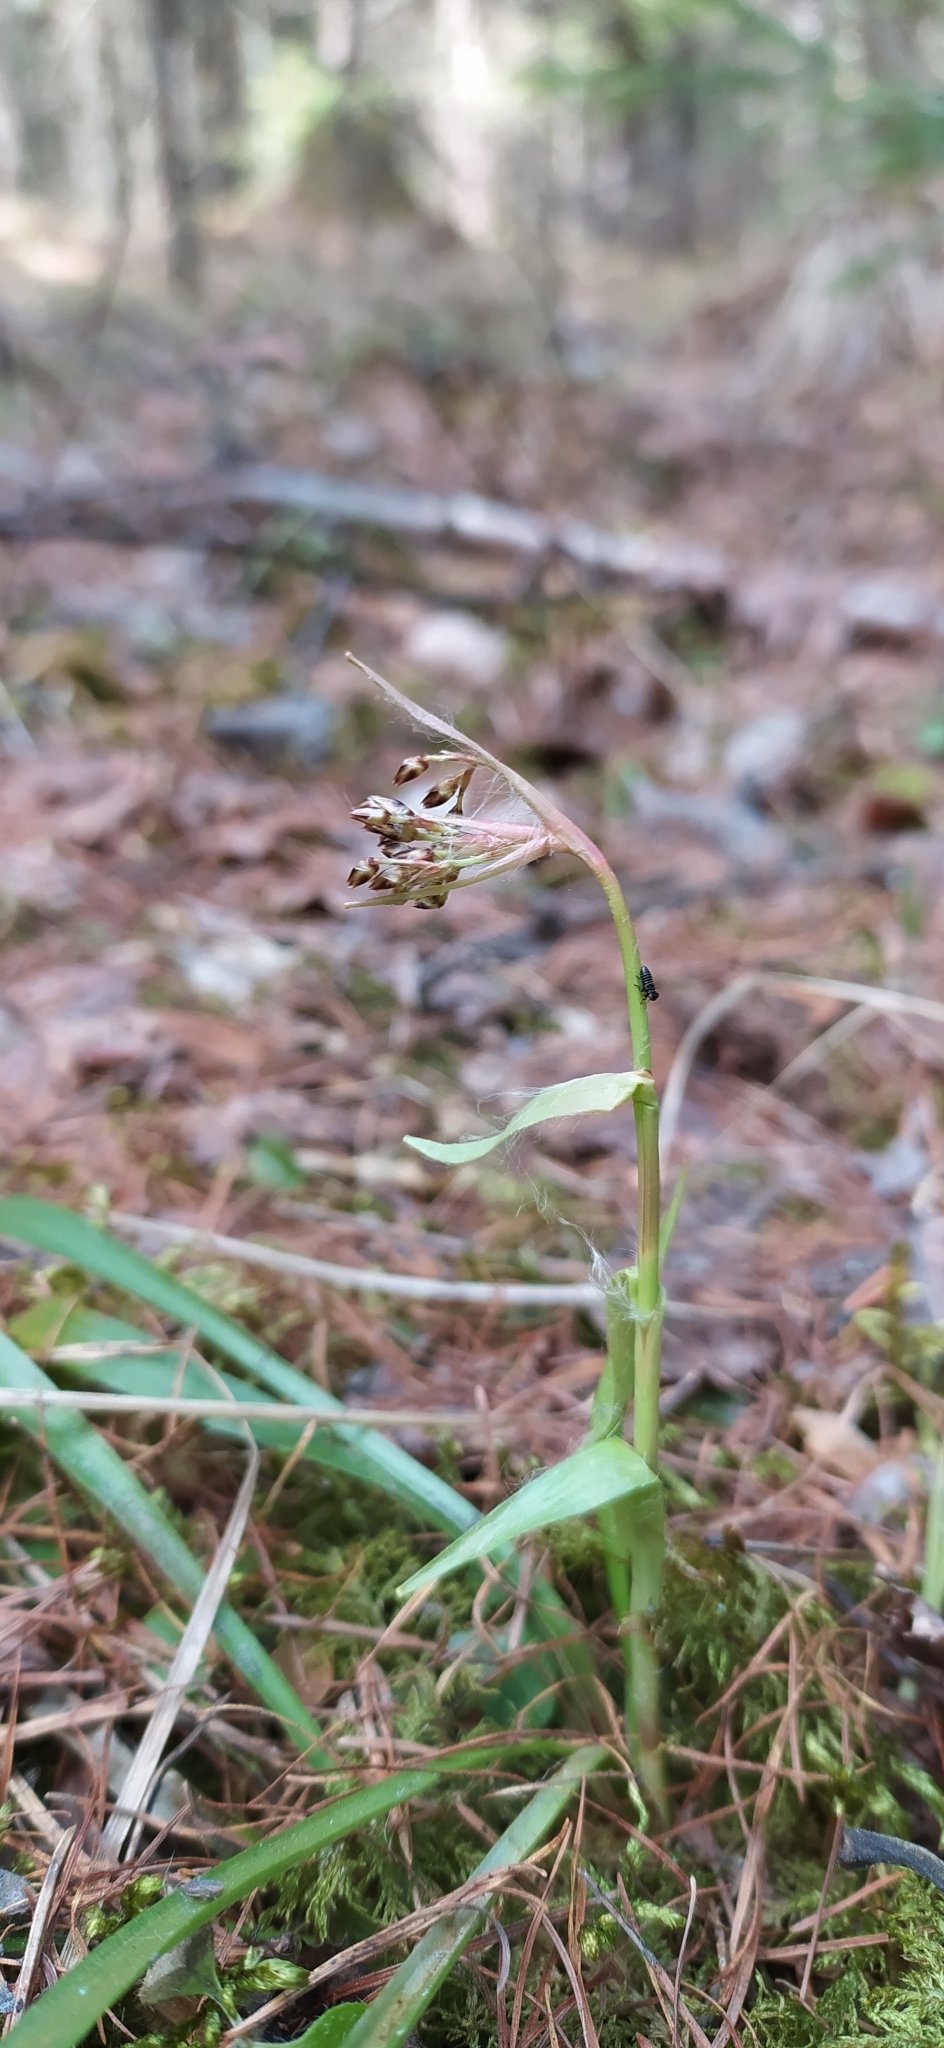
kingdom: Plantae
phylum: Tracheophyta
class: Liliopsida
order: Poales
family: Juncaceae
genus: Luzula
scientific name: Luzula pilosa
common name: Hairy wood-rush
